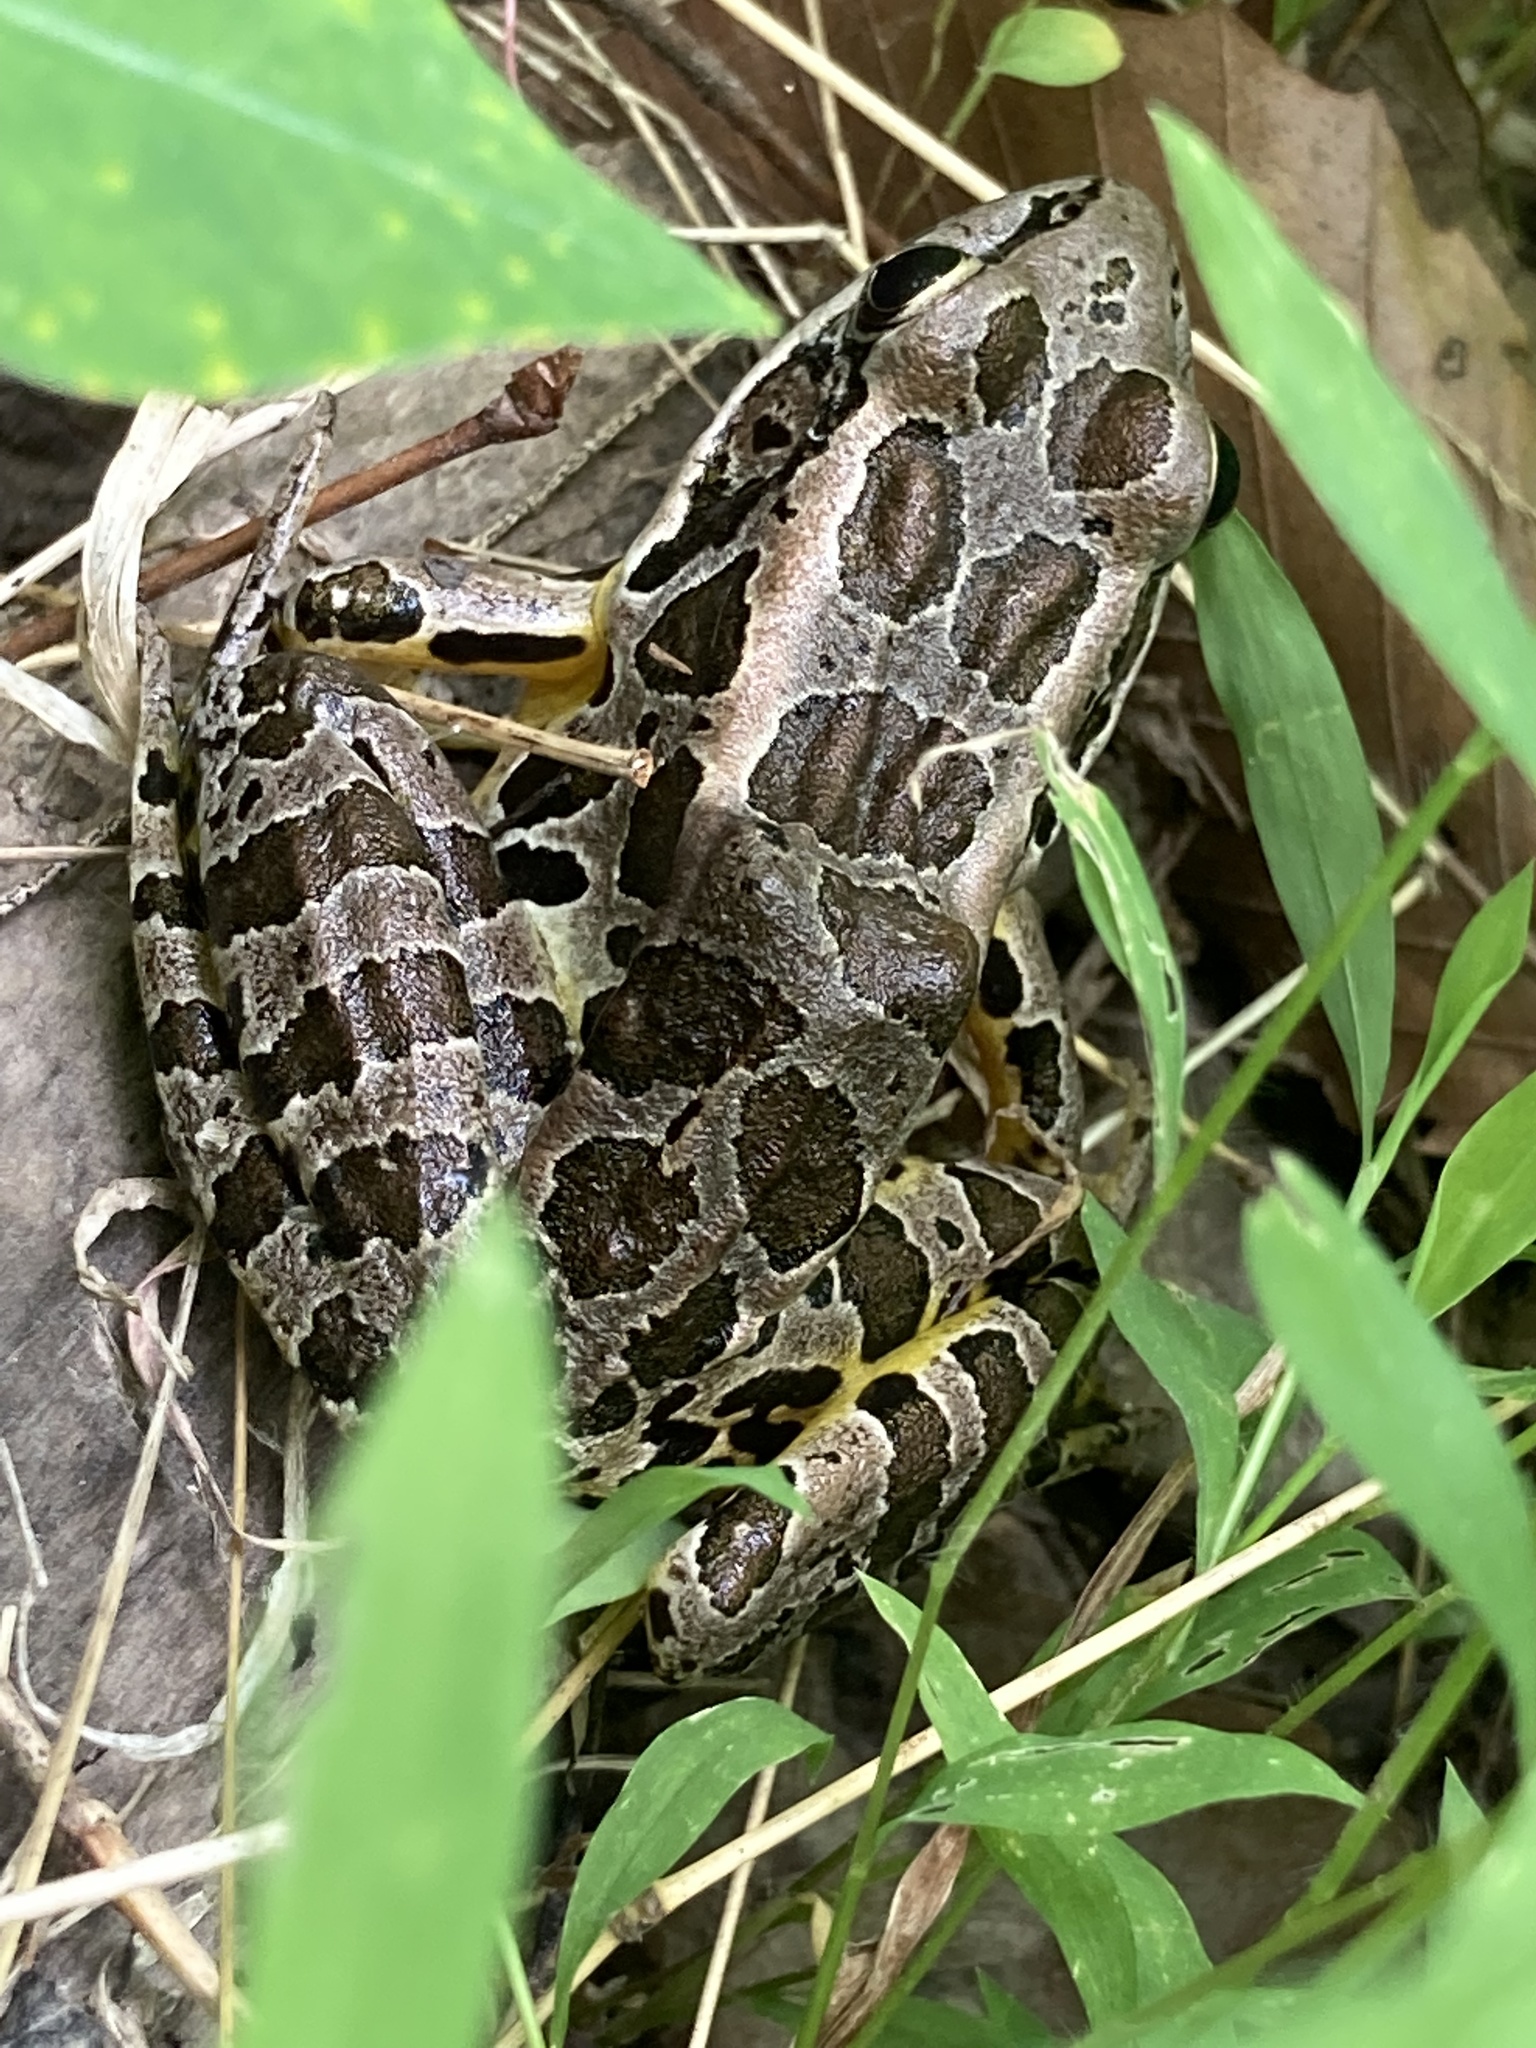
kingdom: Animalia
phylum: Chordata
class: Amphibia
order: Anura
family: Ranidae
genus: Lithobates
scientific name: Lithobates palustris
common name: Pickerel frog
